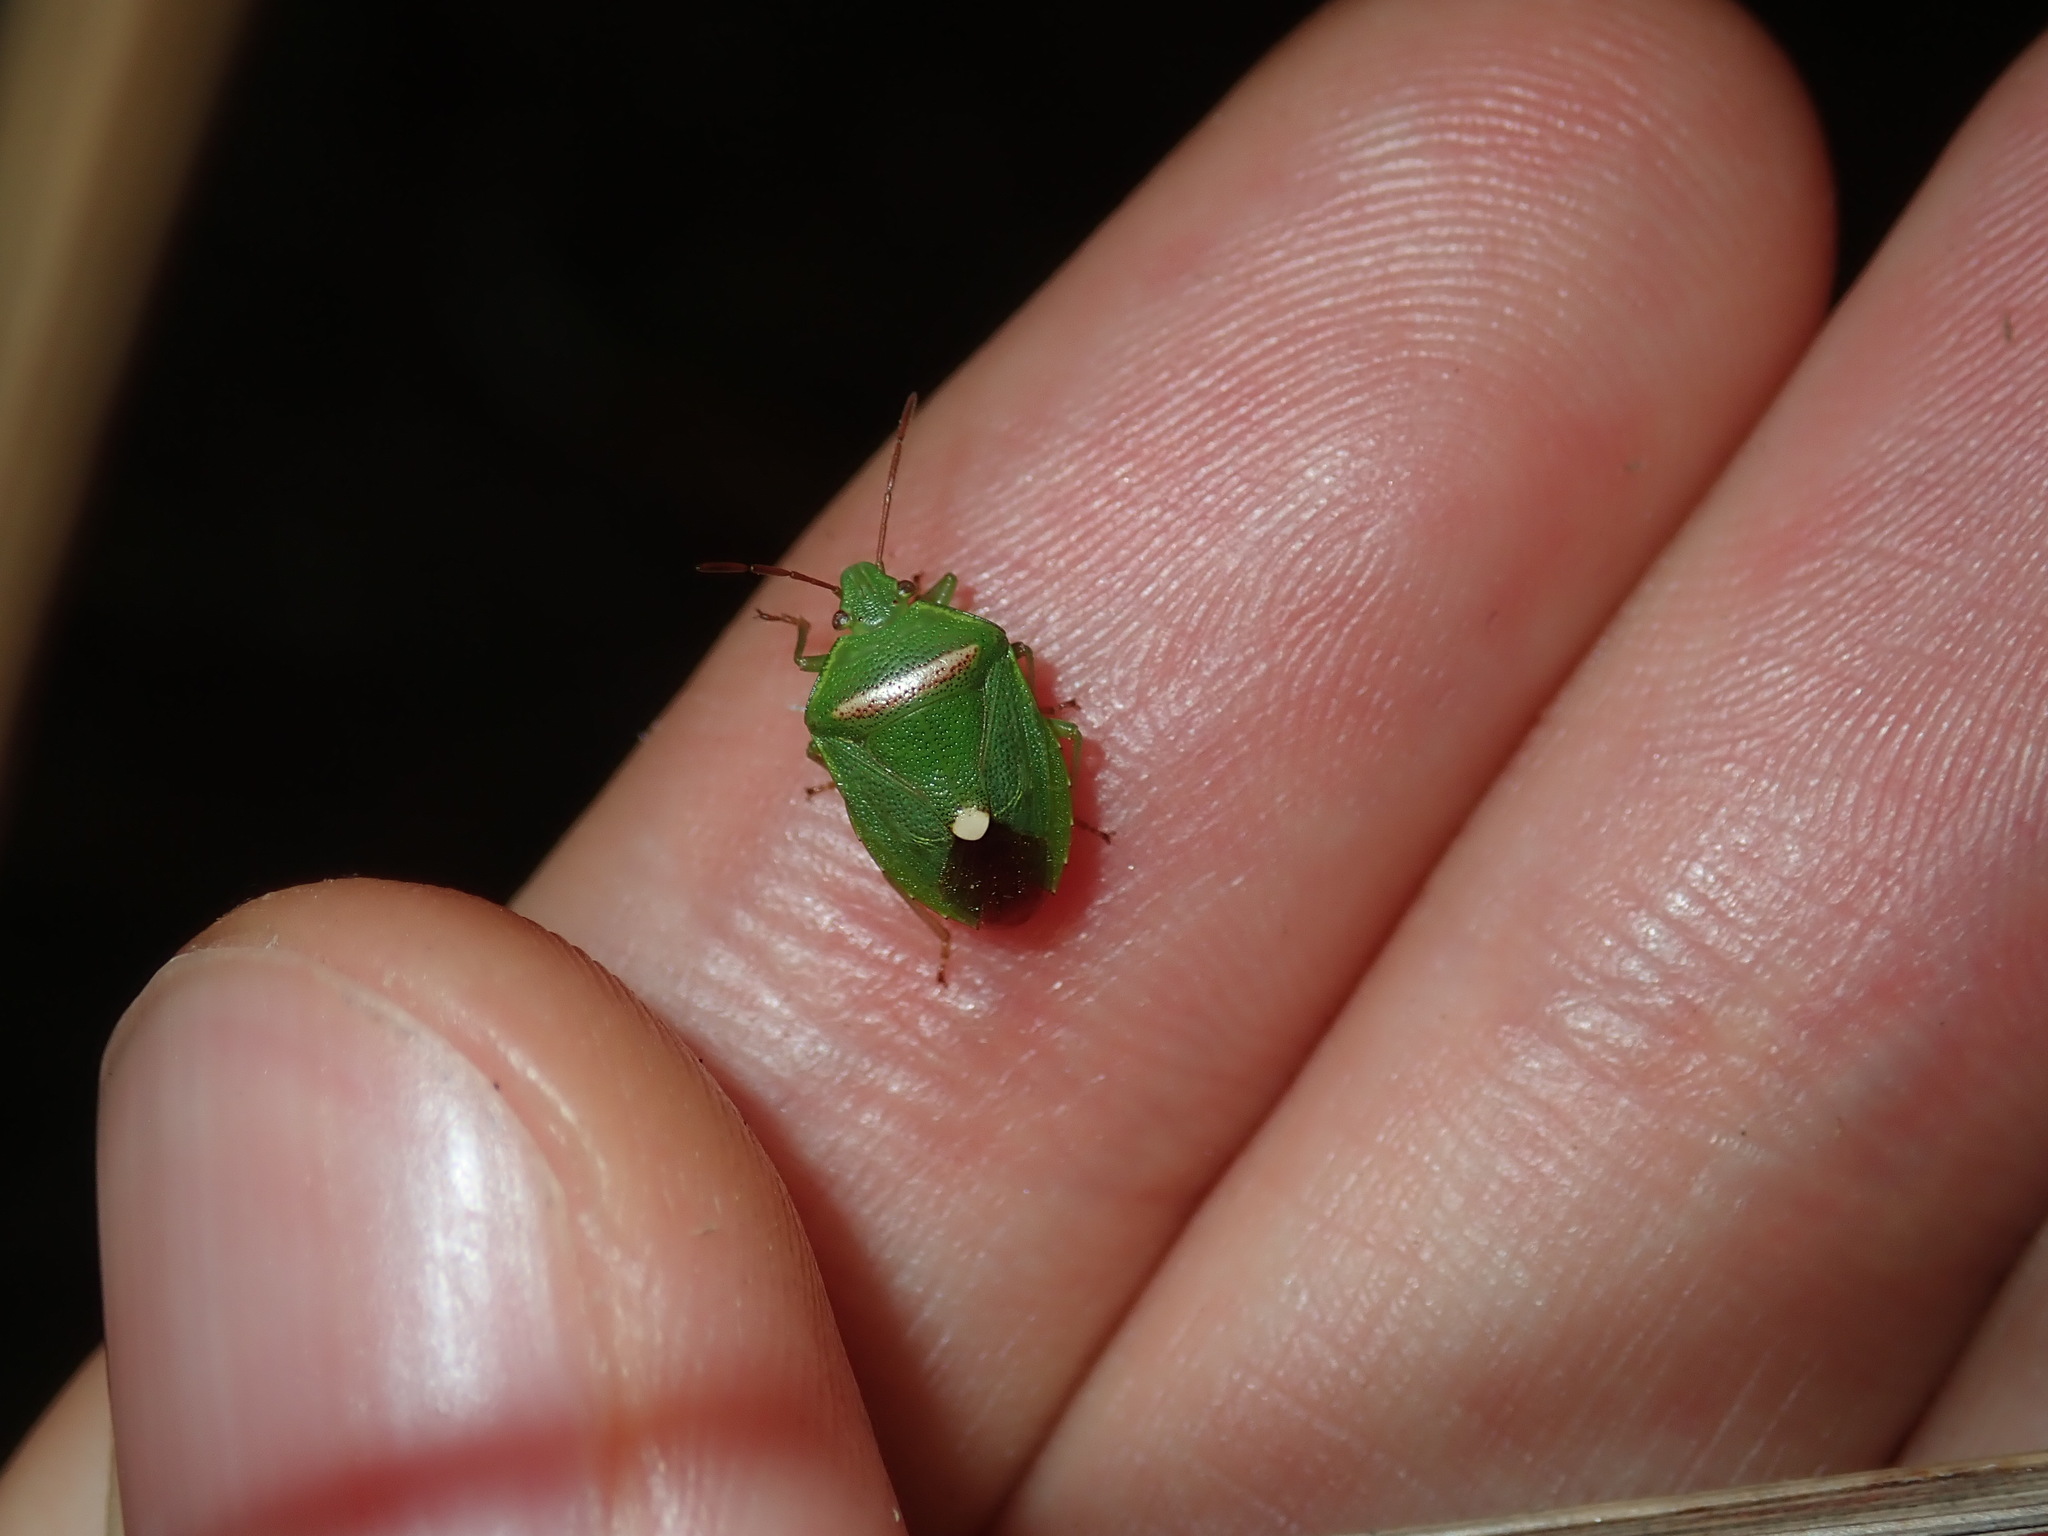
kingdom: Animalia
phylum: Arthropoda
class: Insecta
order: Hemiptera
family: Pentatomidae
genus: Ocirrhoe
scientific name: Ocirrhoe
